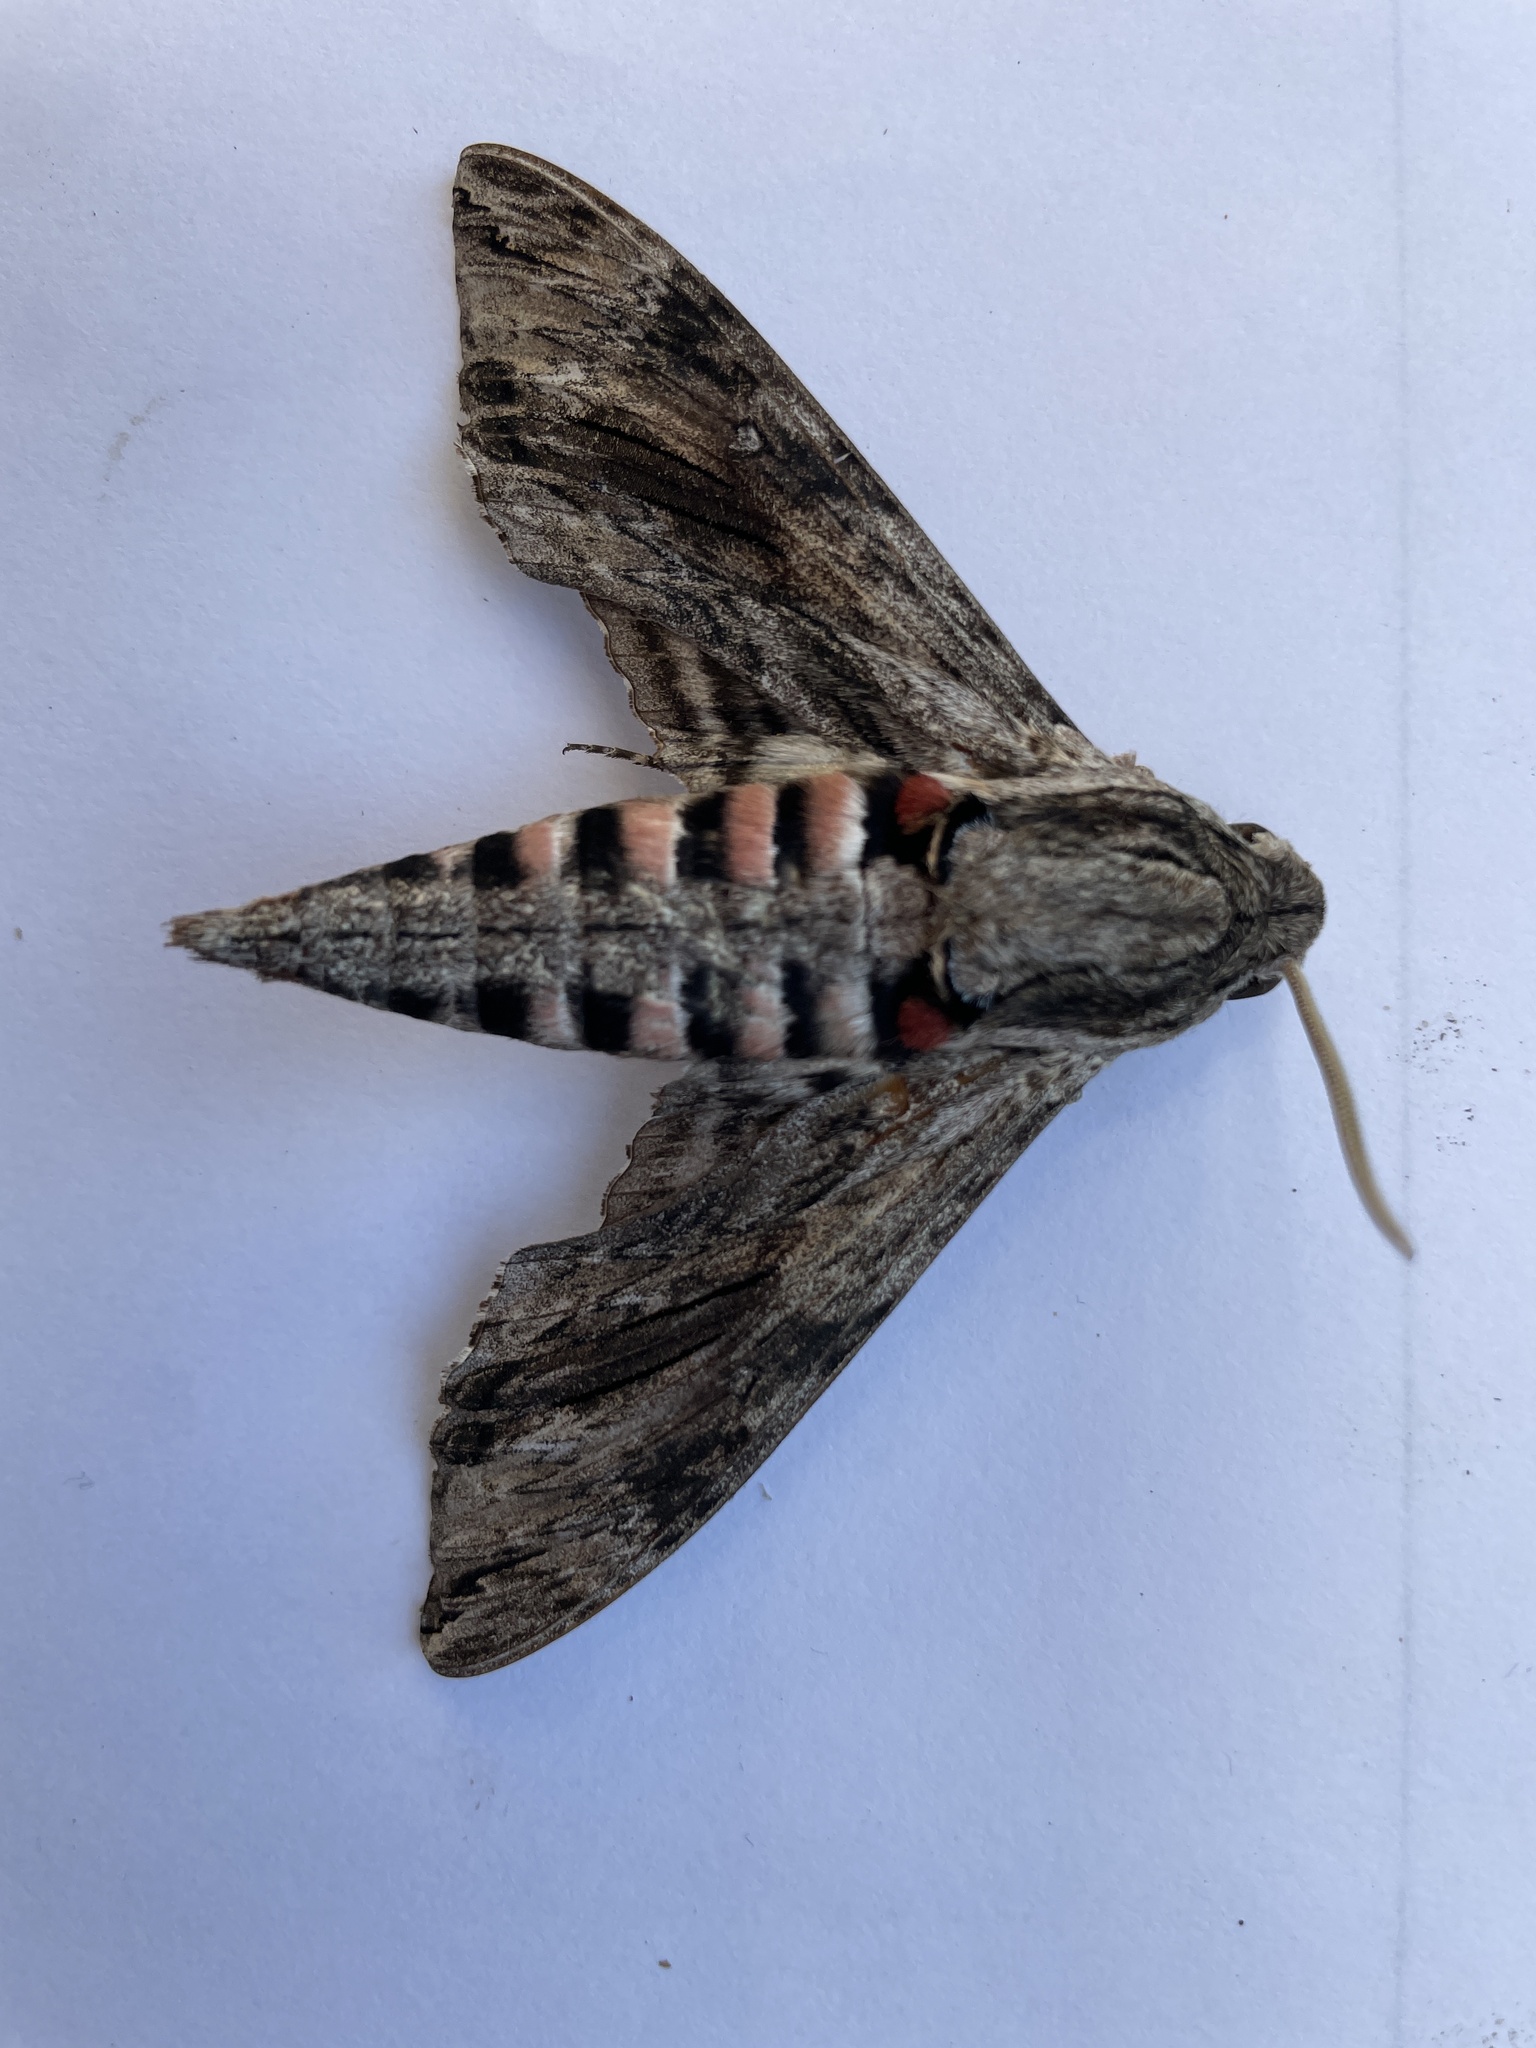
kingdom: Animalia
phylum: Arthropoda
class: Insecta
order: Lepidoptera
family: Sphingidae
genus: Agrius
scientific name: Agrius convolvuli
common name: Convolvulus hawkmoth
